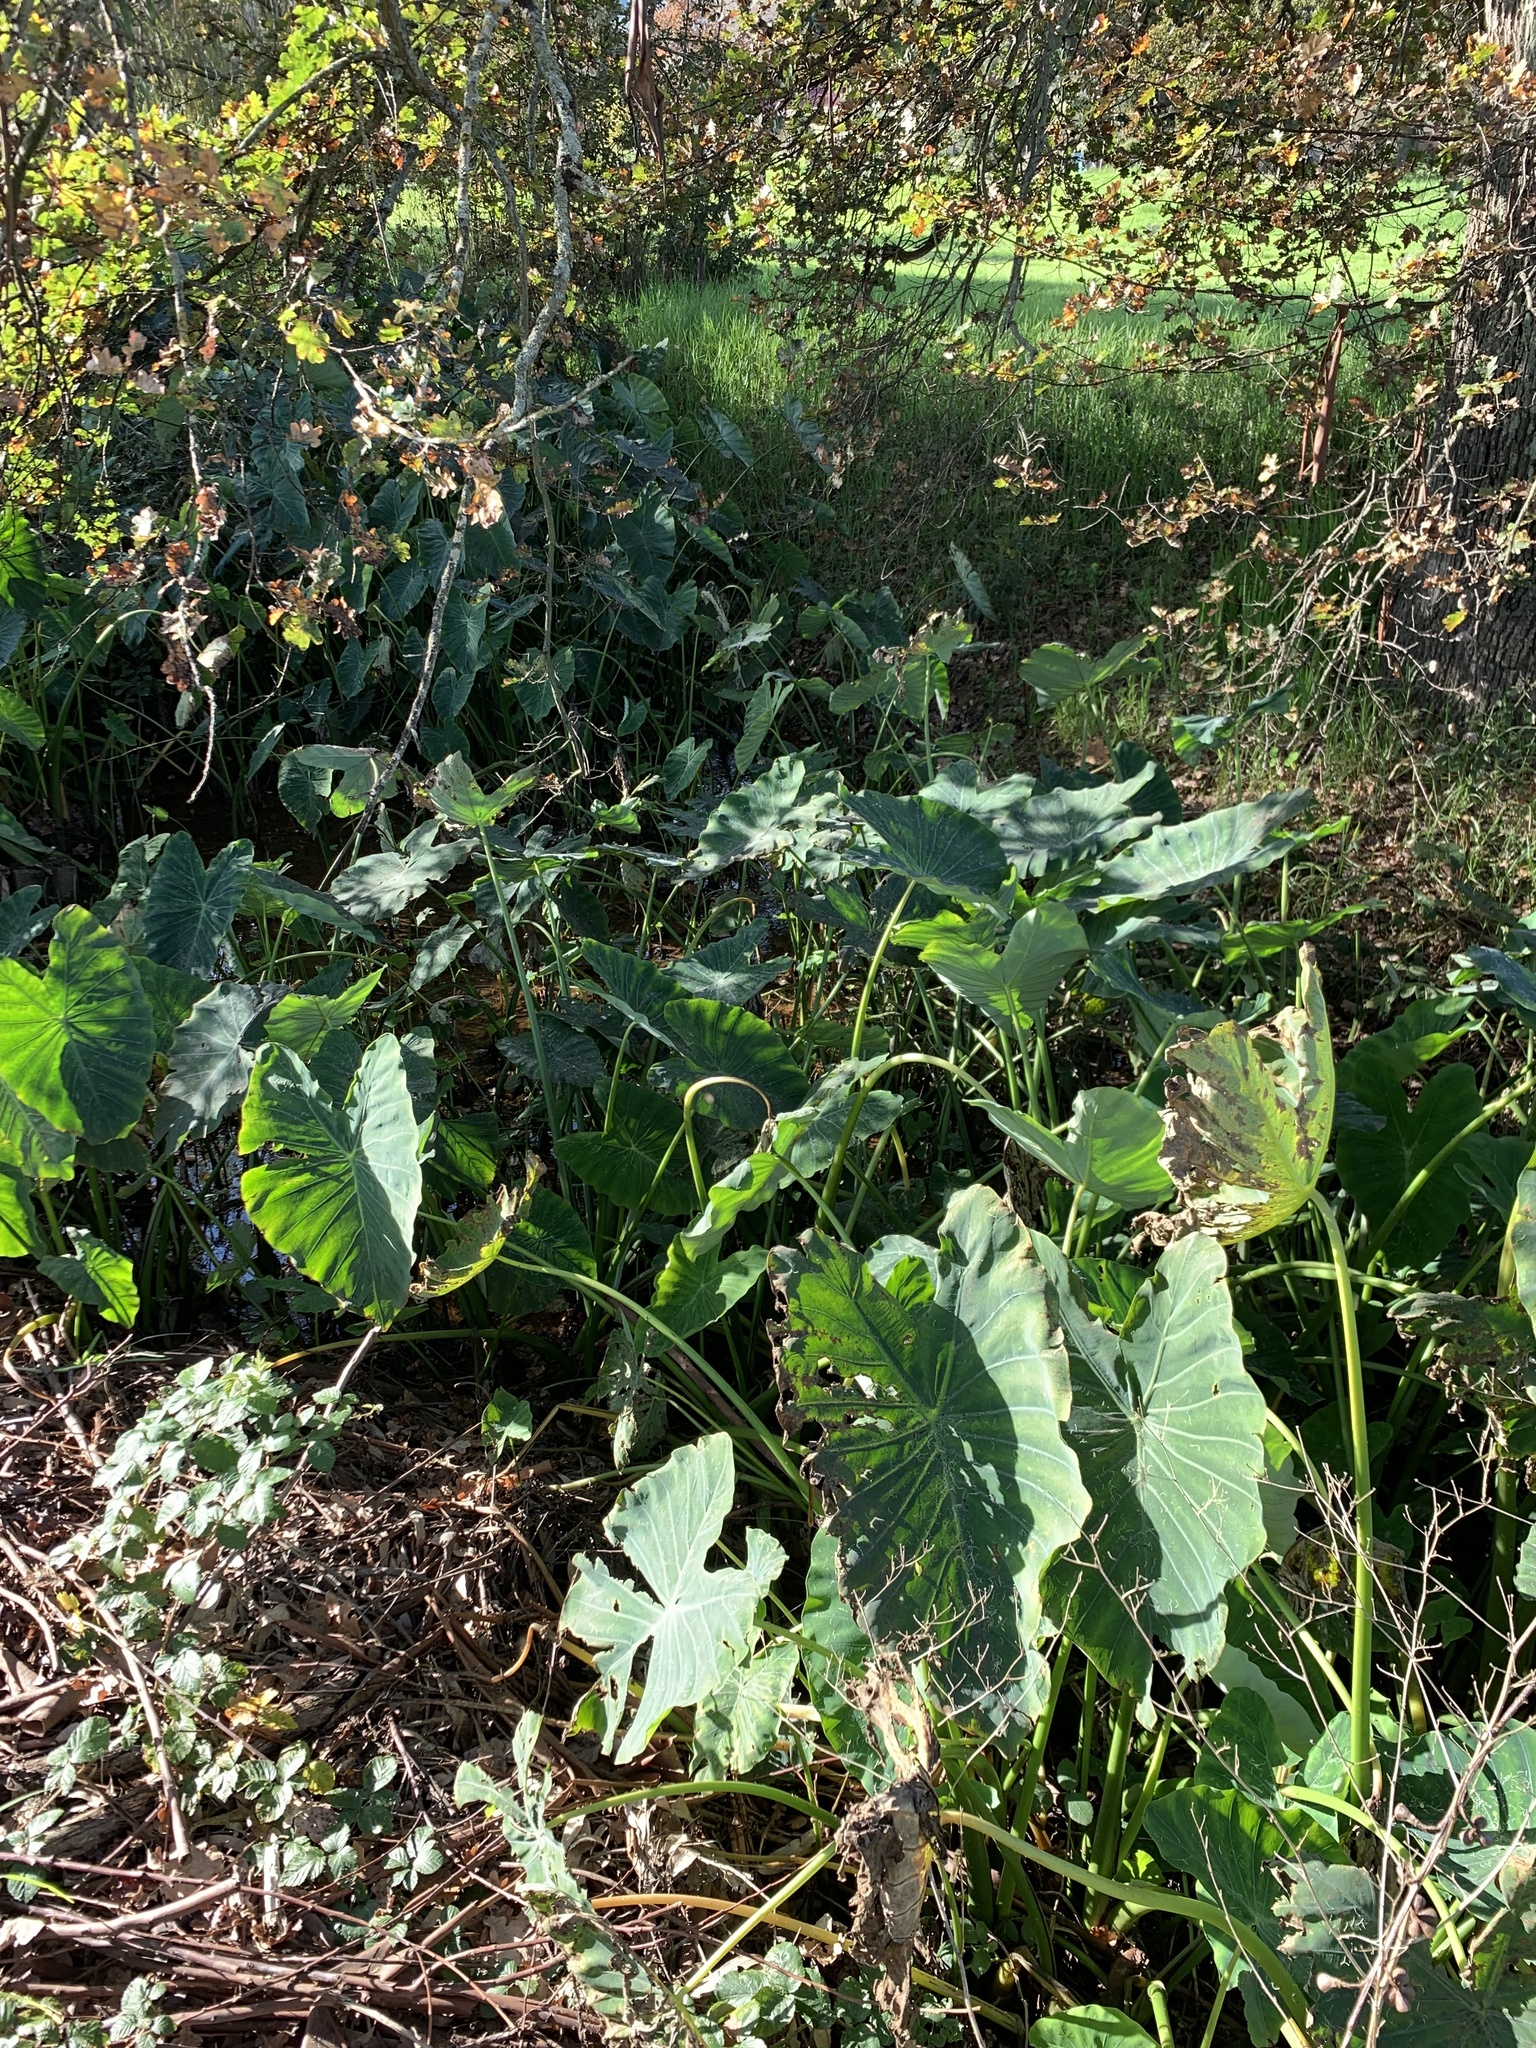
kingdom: Plantae
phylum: Tracheophyta
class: Liliopsida
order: Alismatales
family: Araceae
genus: Colocasia
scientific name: Colocasia esculenta
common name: Taro
